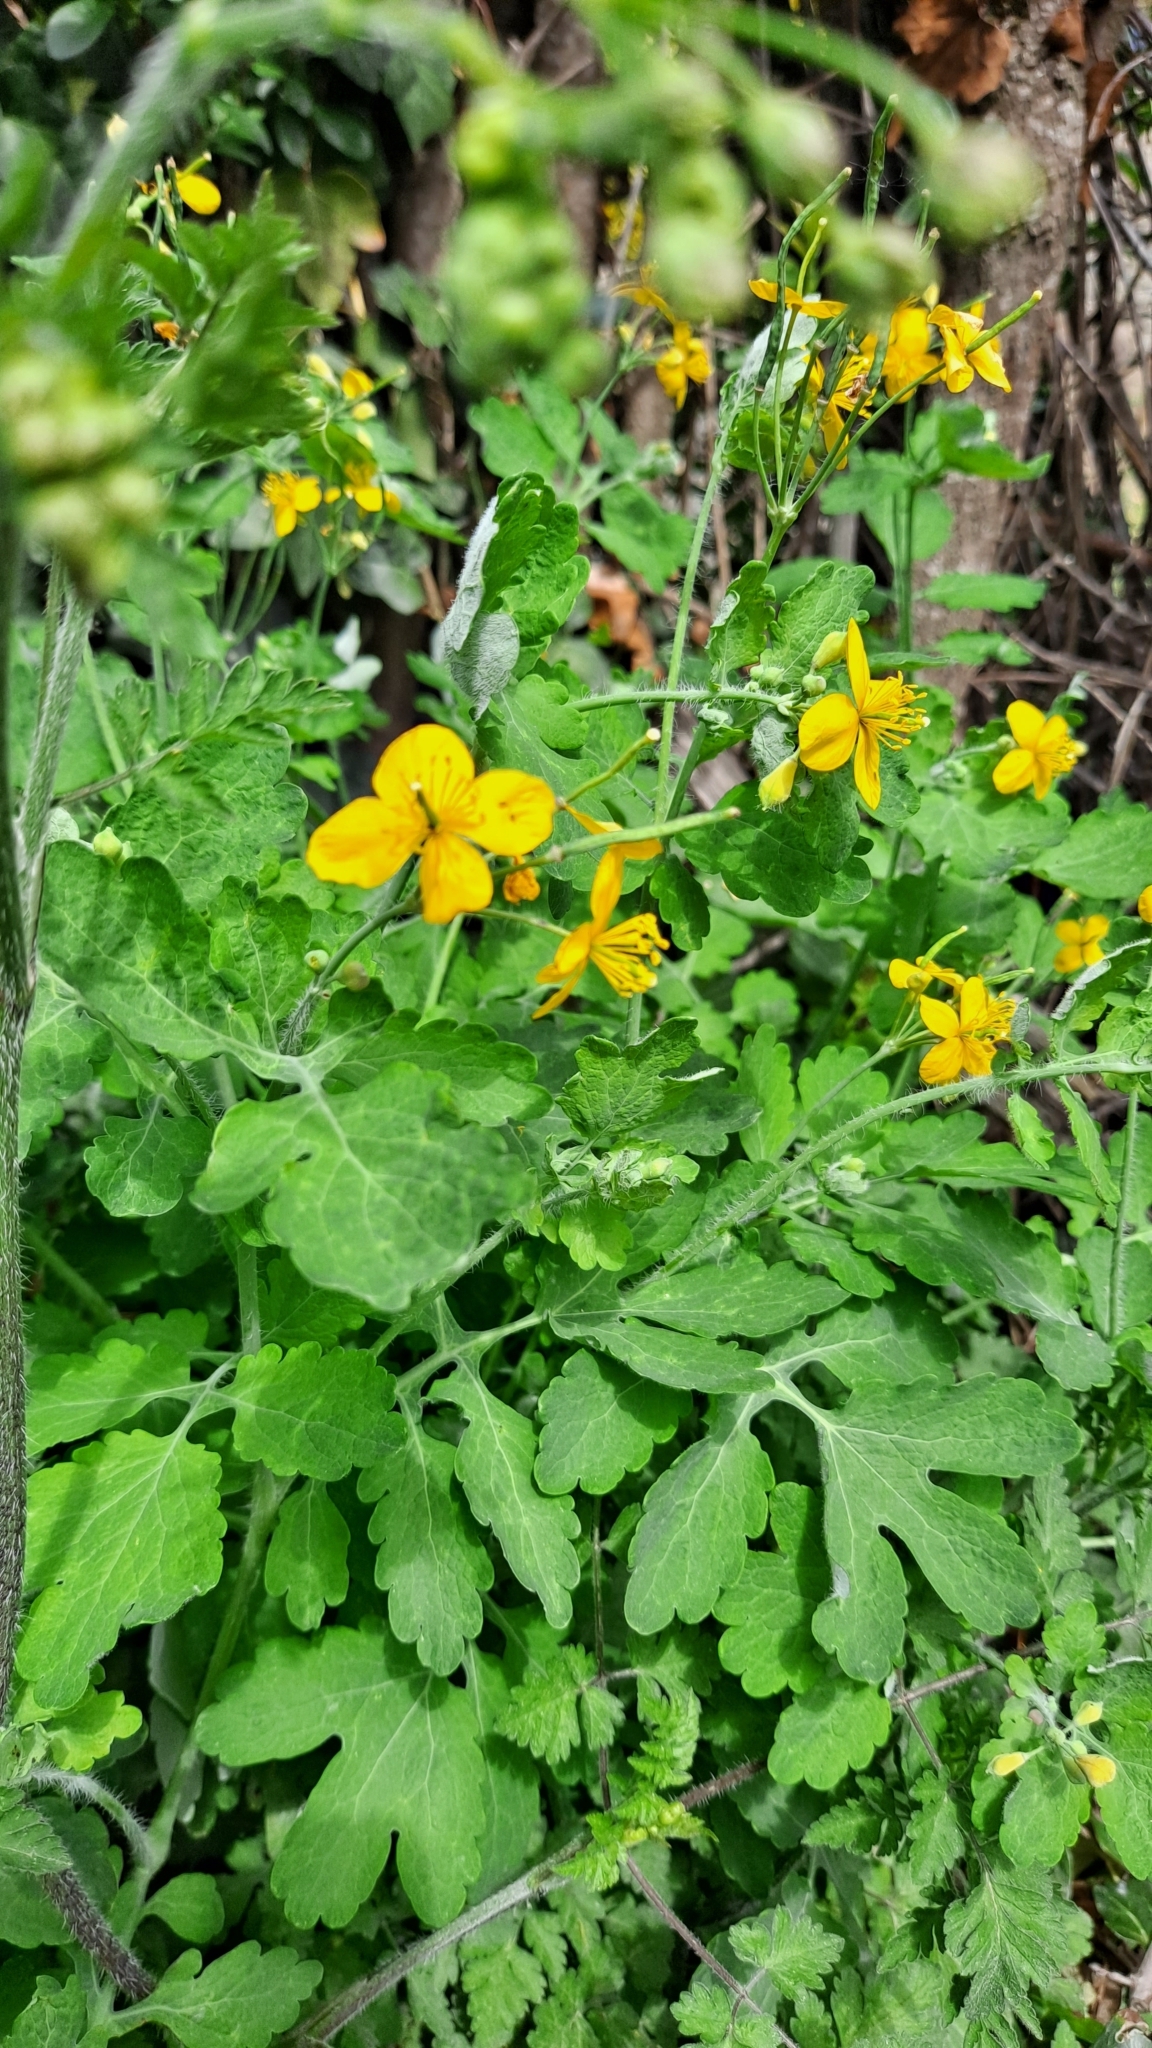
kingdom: Plantae
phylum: Tracheophyta
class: Magnoliopsida
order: Ranunculales
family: Papaveraceae
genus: Chelidonium
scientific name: Chelidonium majus
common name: Greater celandine
